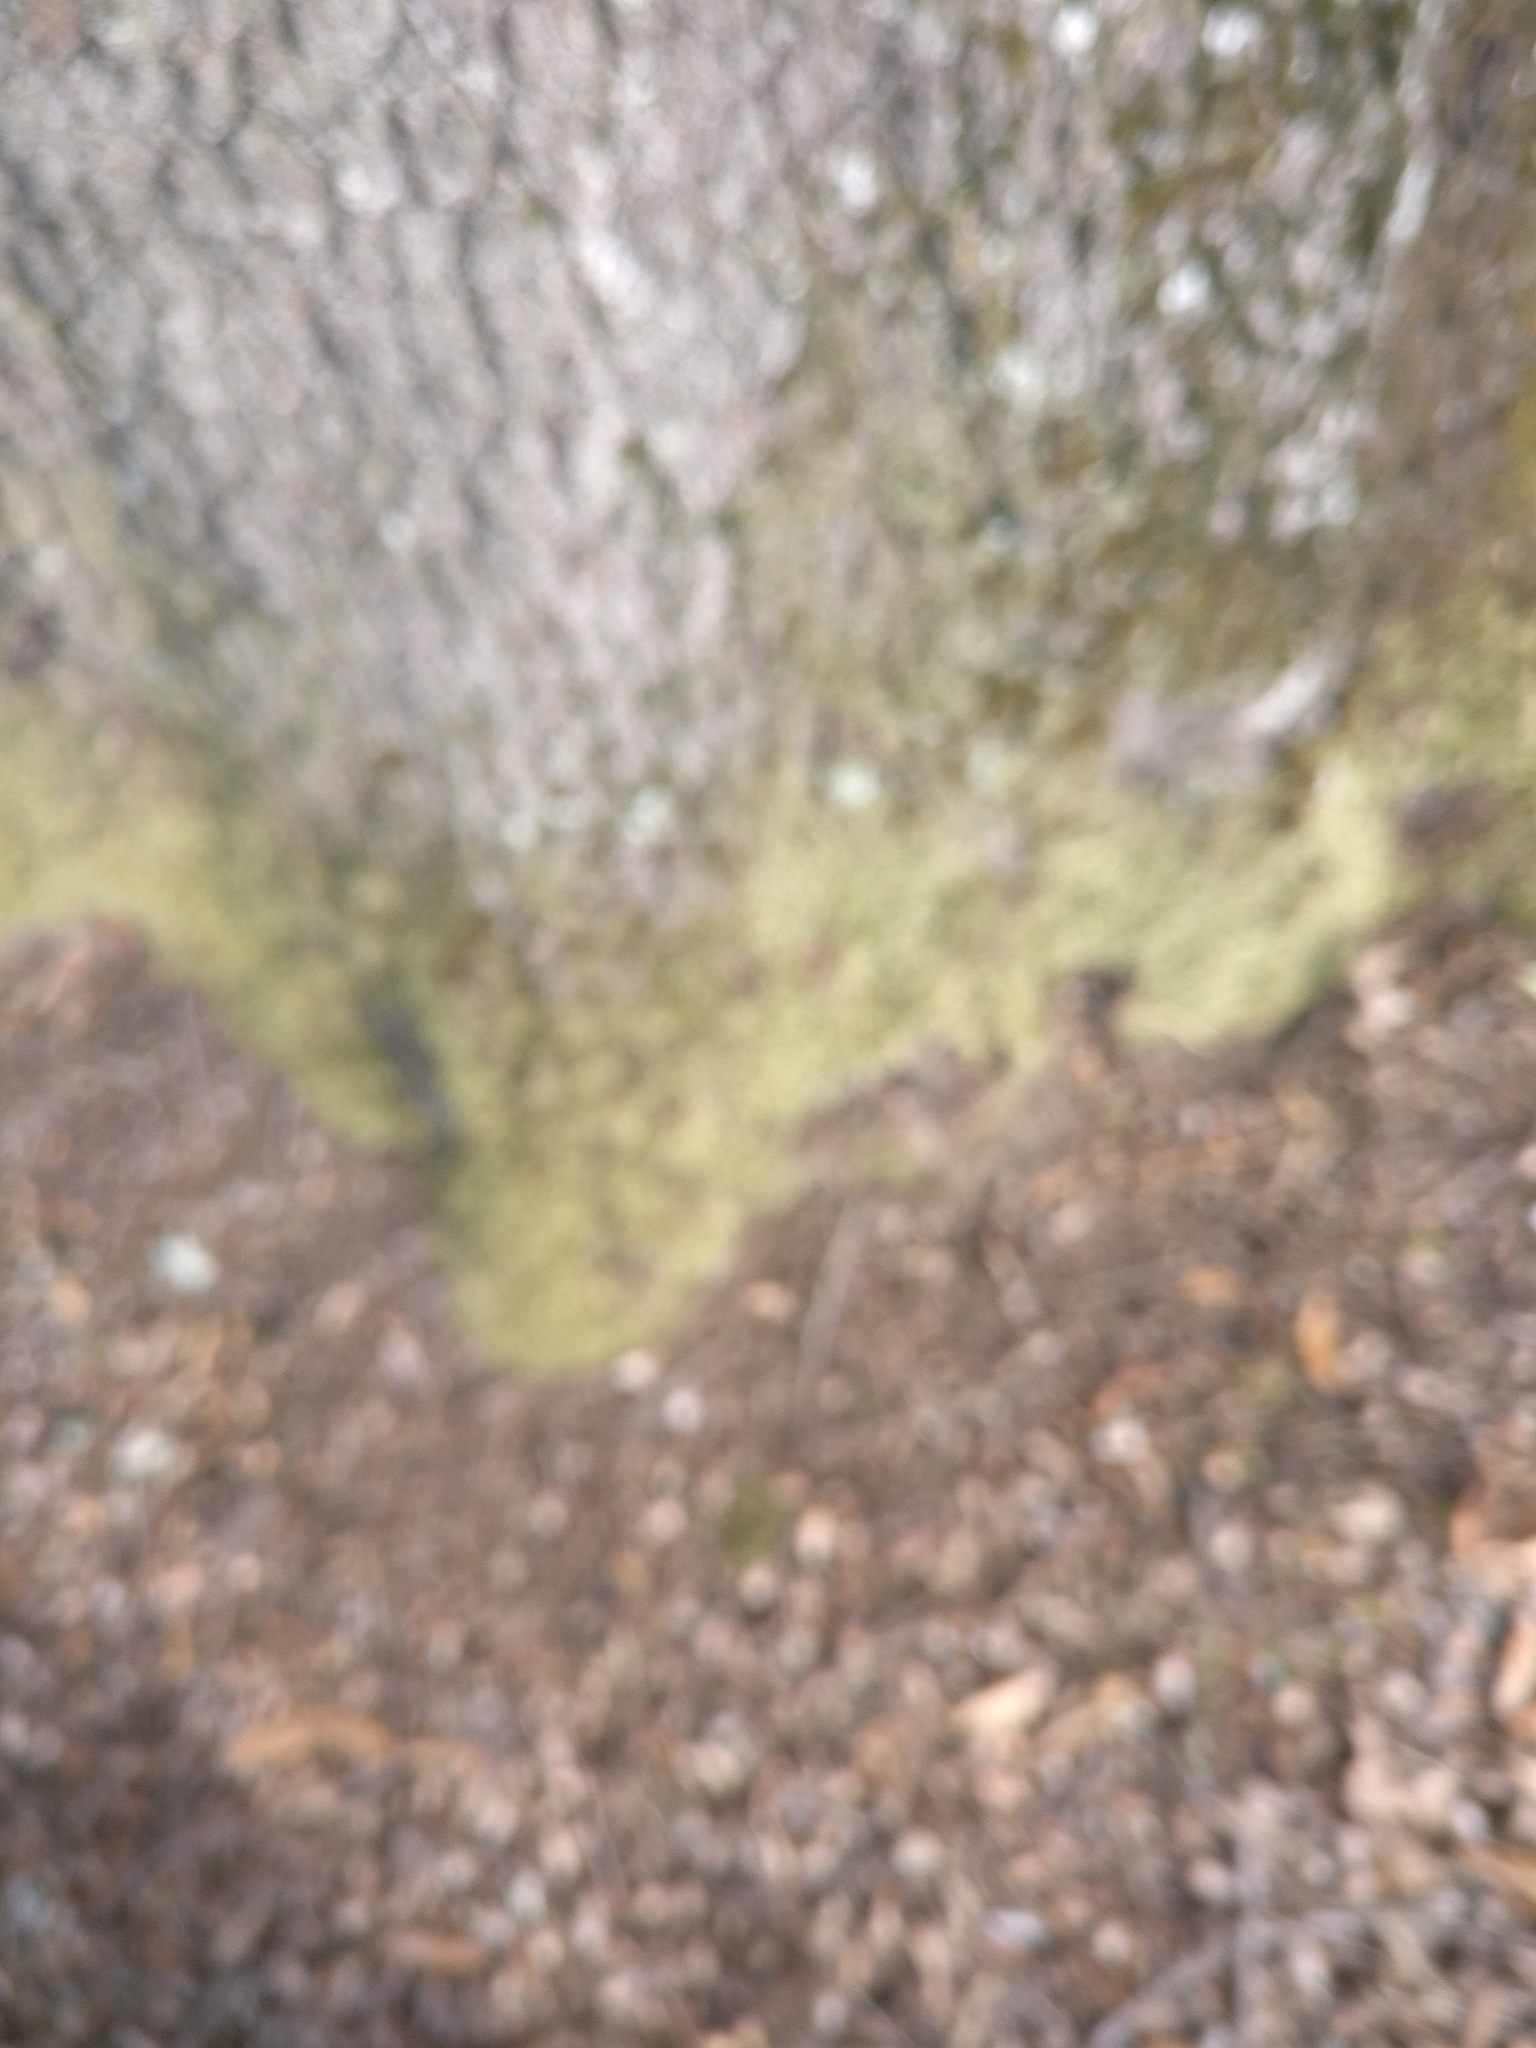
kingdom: Plantae
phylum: Bryophyta
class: Bryopsida
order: Hypnales
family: Entodontaceae
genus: Entodon
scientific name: Entodon seductrix
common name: Round-stemmed entodon moss
